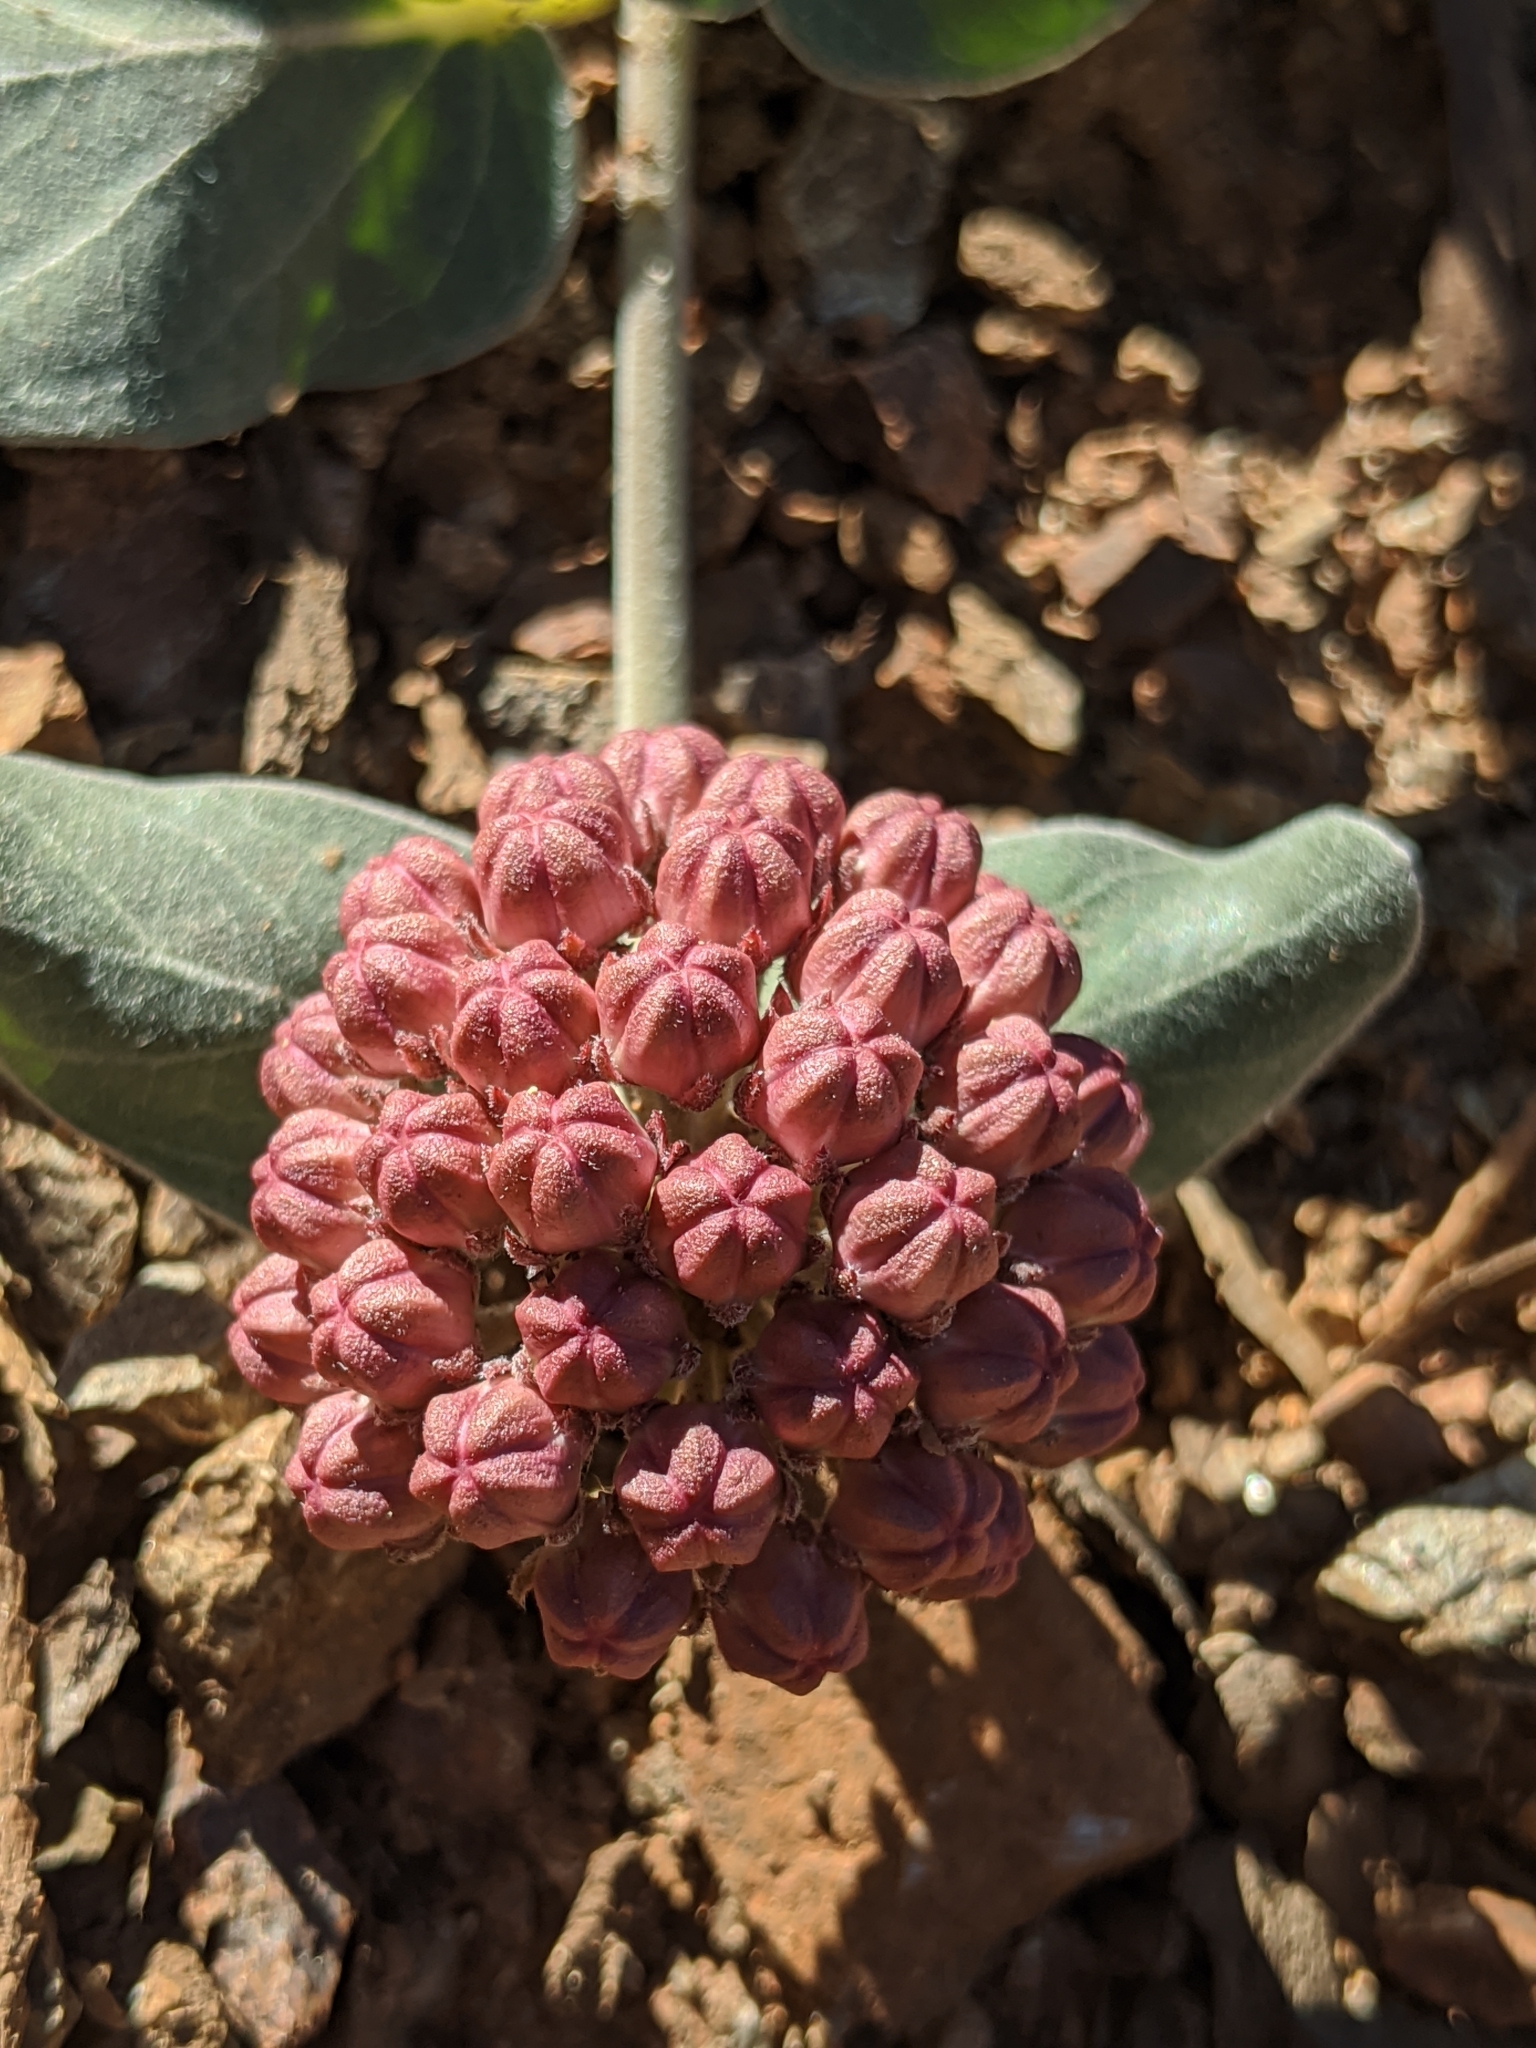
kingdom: Plantae
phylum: Tracheophyta
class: Magnoliopsida
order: Gentianales
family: Apocynaceae
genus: Asclepias
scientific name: Asclepias solanoana
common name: Serpentine milkweed
